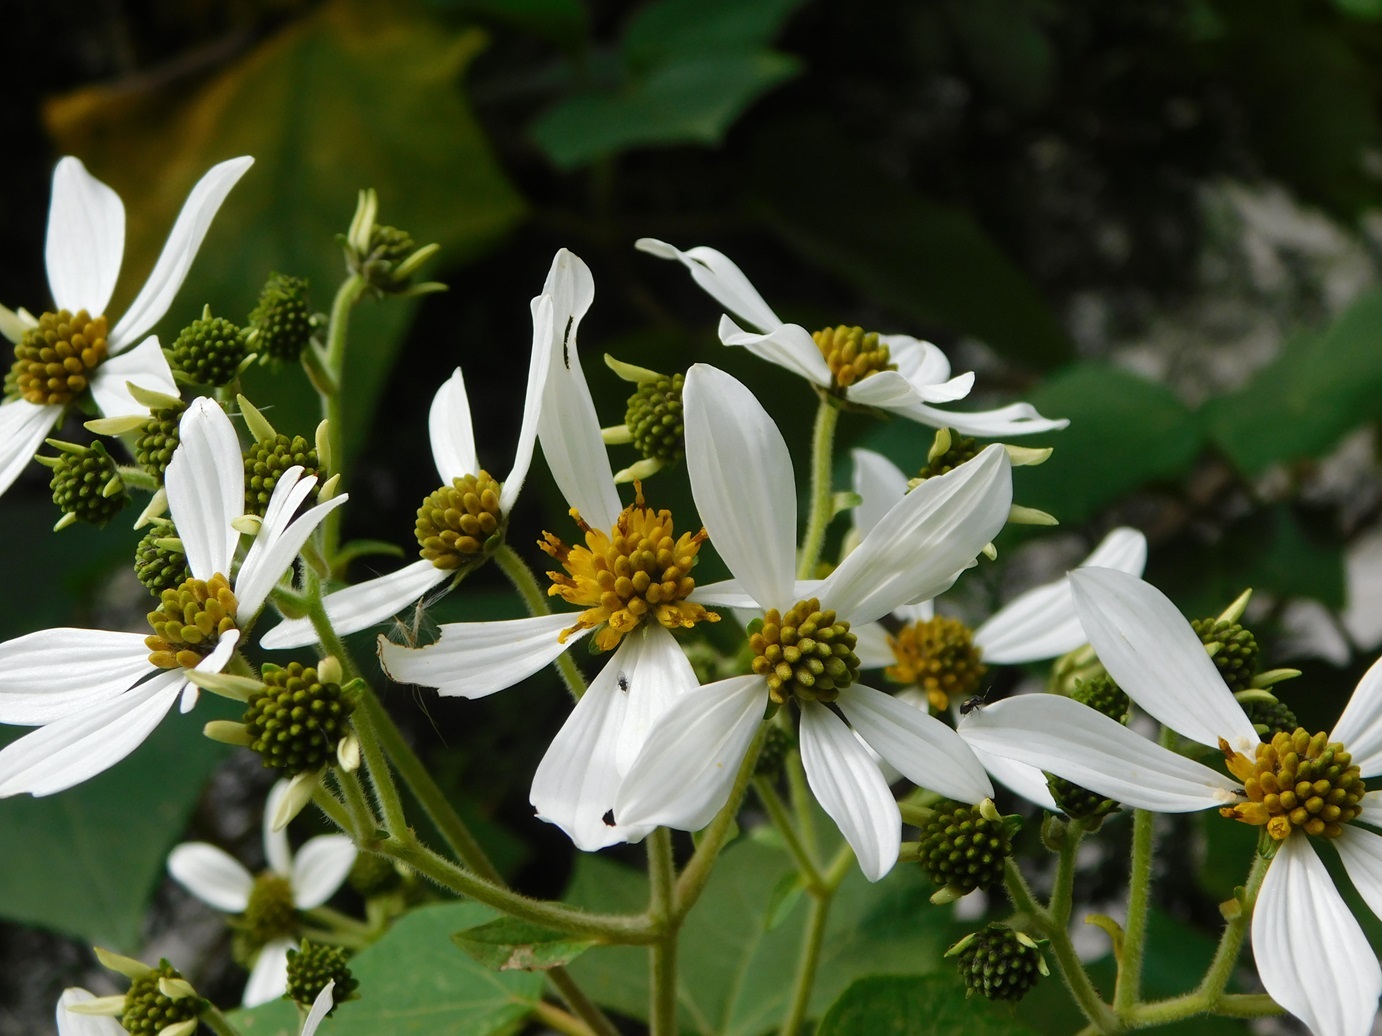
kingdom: Plantae
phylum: Tracheophyta
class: Magnoliopsida
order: Asterales
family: Asteraceae
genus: Montanoa
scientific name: Montanoa leucantha
